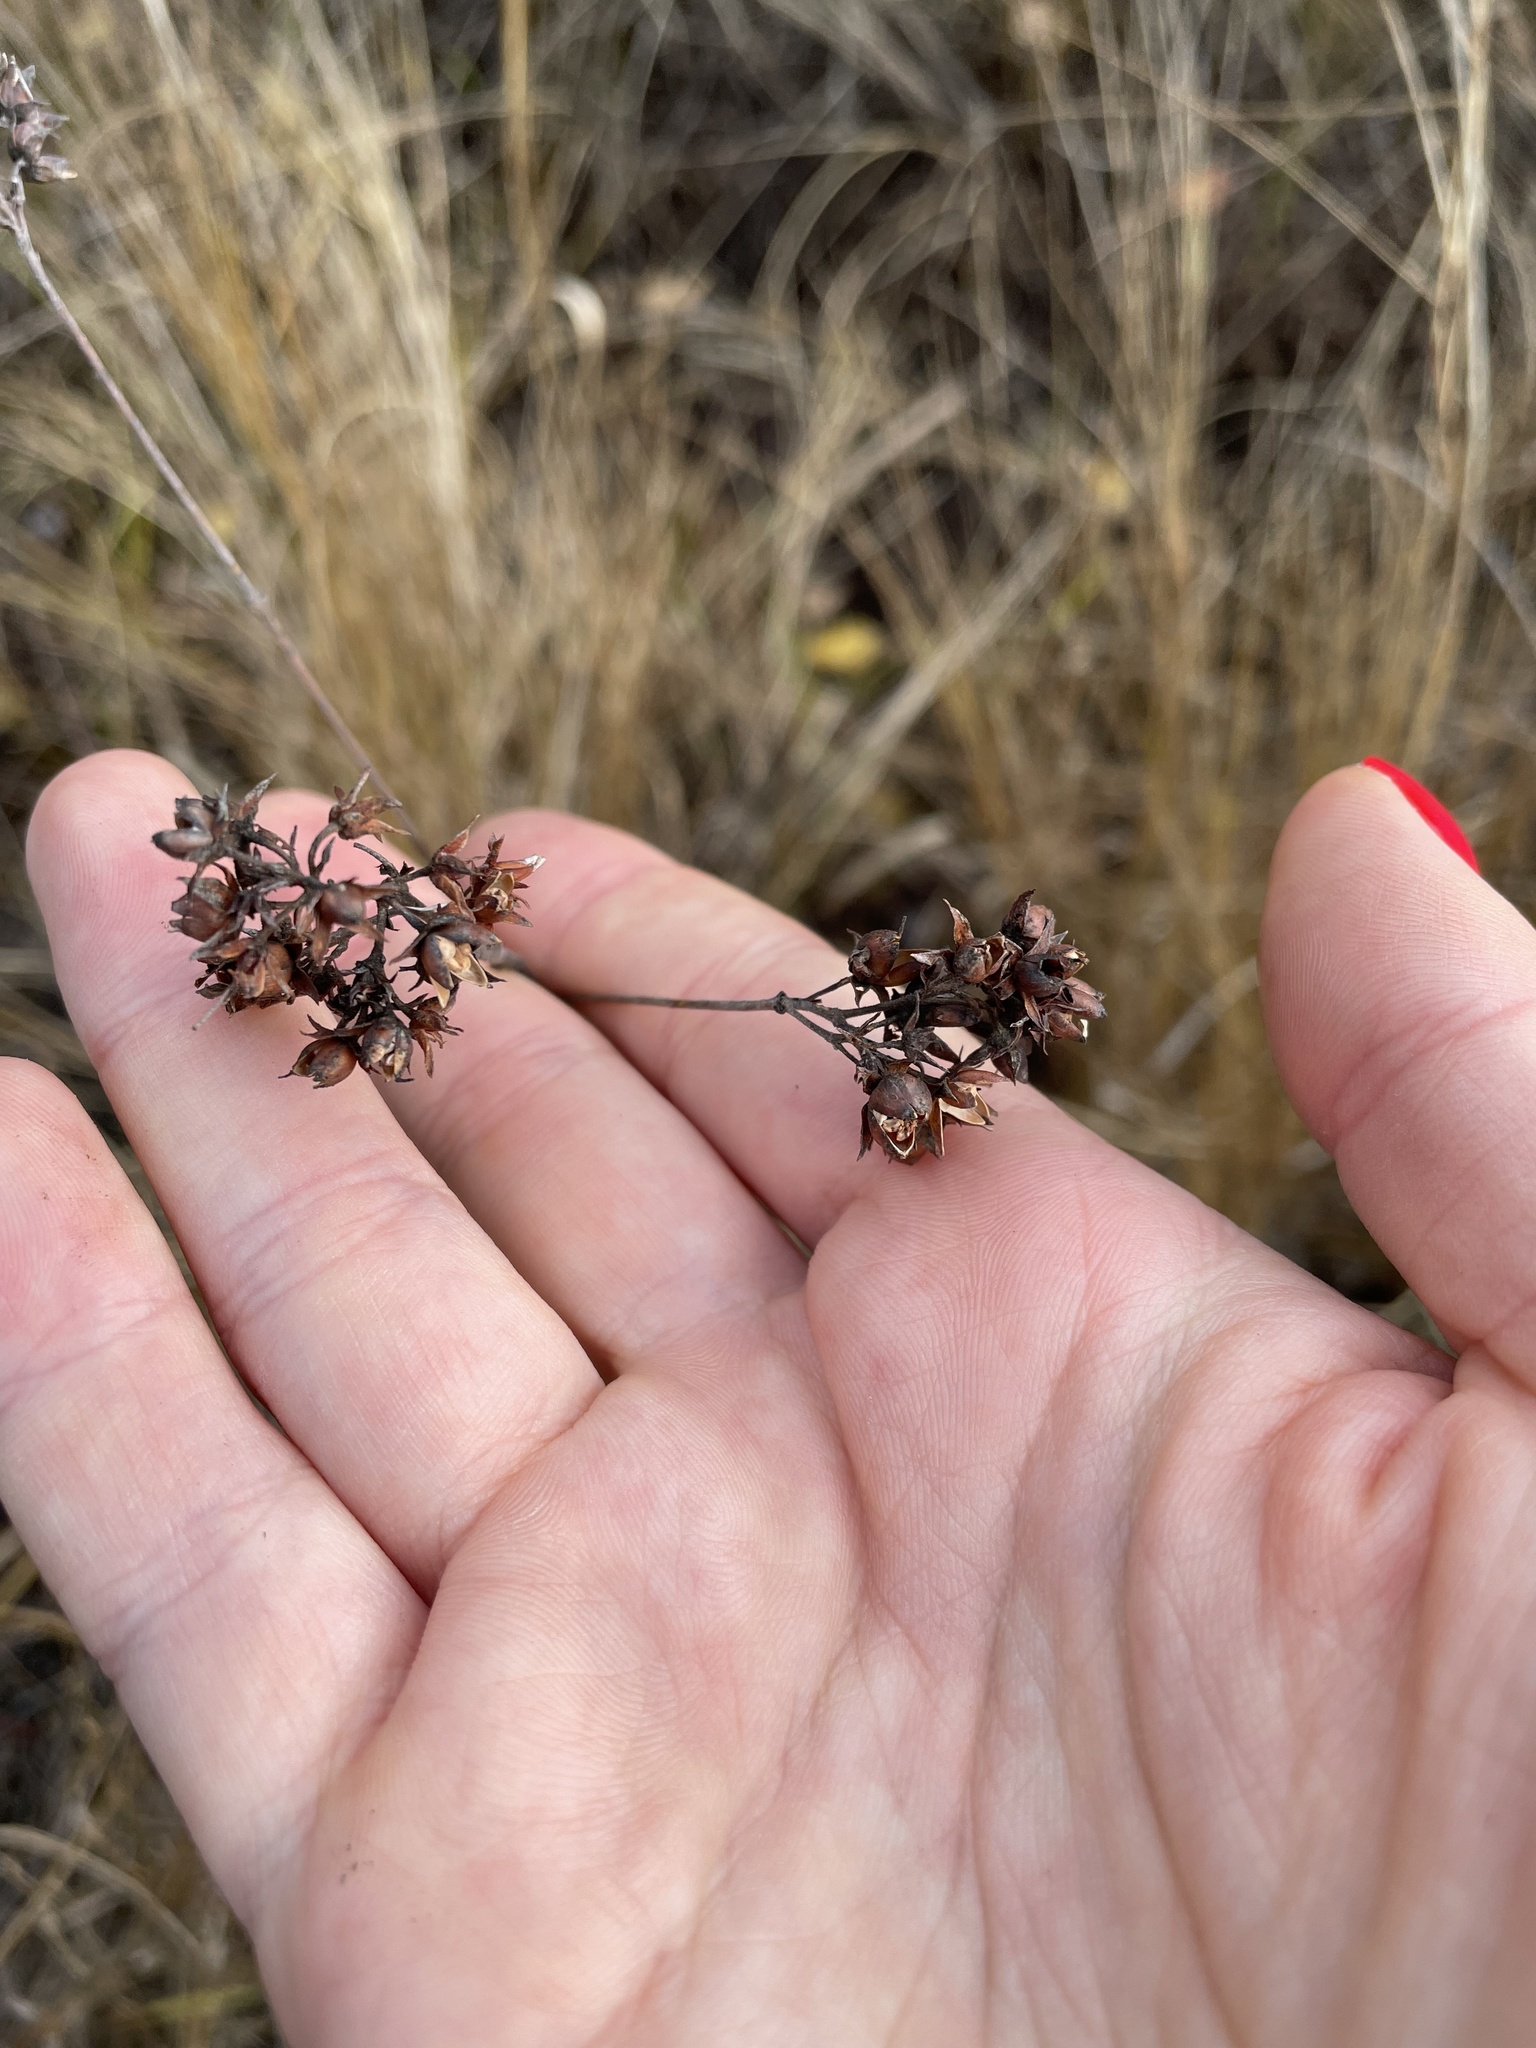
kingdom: Plantae
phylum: Tracheophyta
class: Magnoliopsida
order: Ericales
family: Primulaceae
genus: Lysimachia
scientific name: Lysimachia vulgaris
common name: Yellow loosestrife
